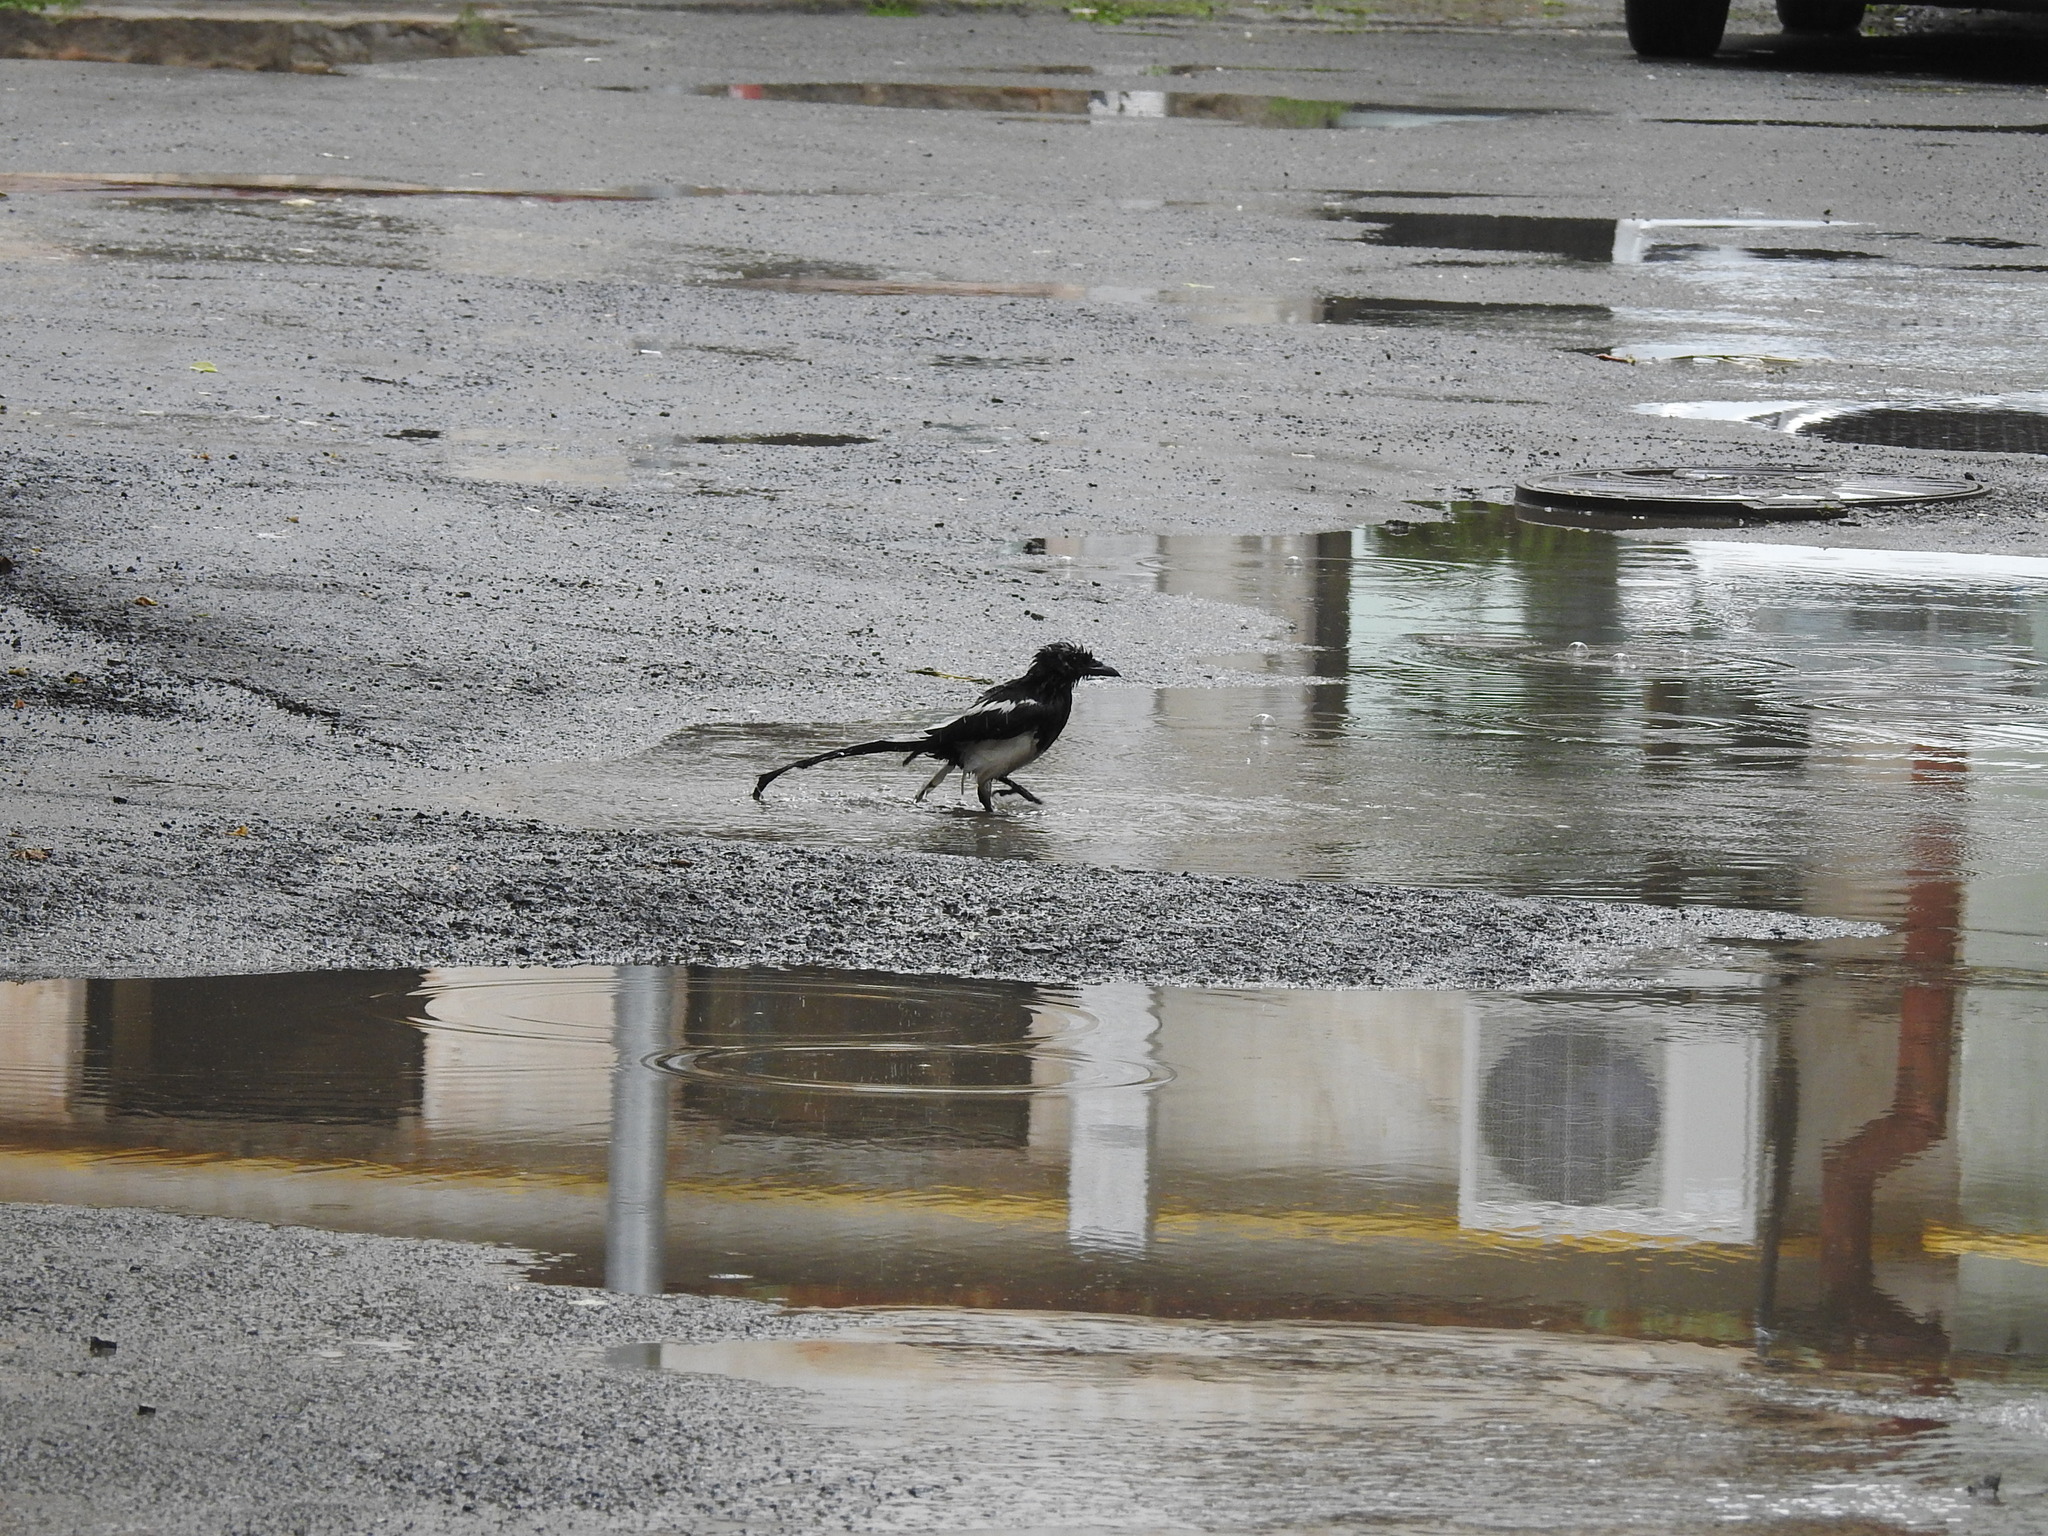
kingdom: Animalia
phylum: Chordata
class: Aves
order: Passeriformes
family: Corvidae
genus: Pica
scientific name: Pica pica
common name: Eurasian magpie
